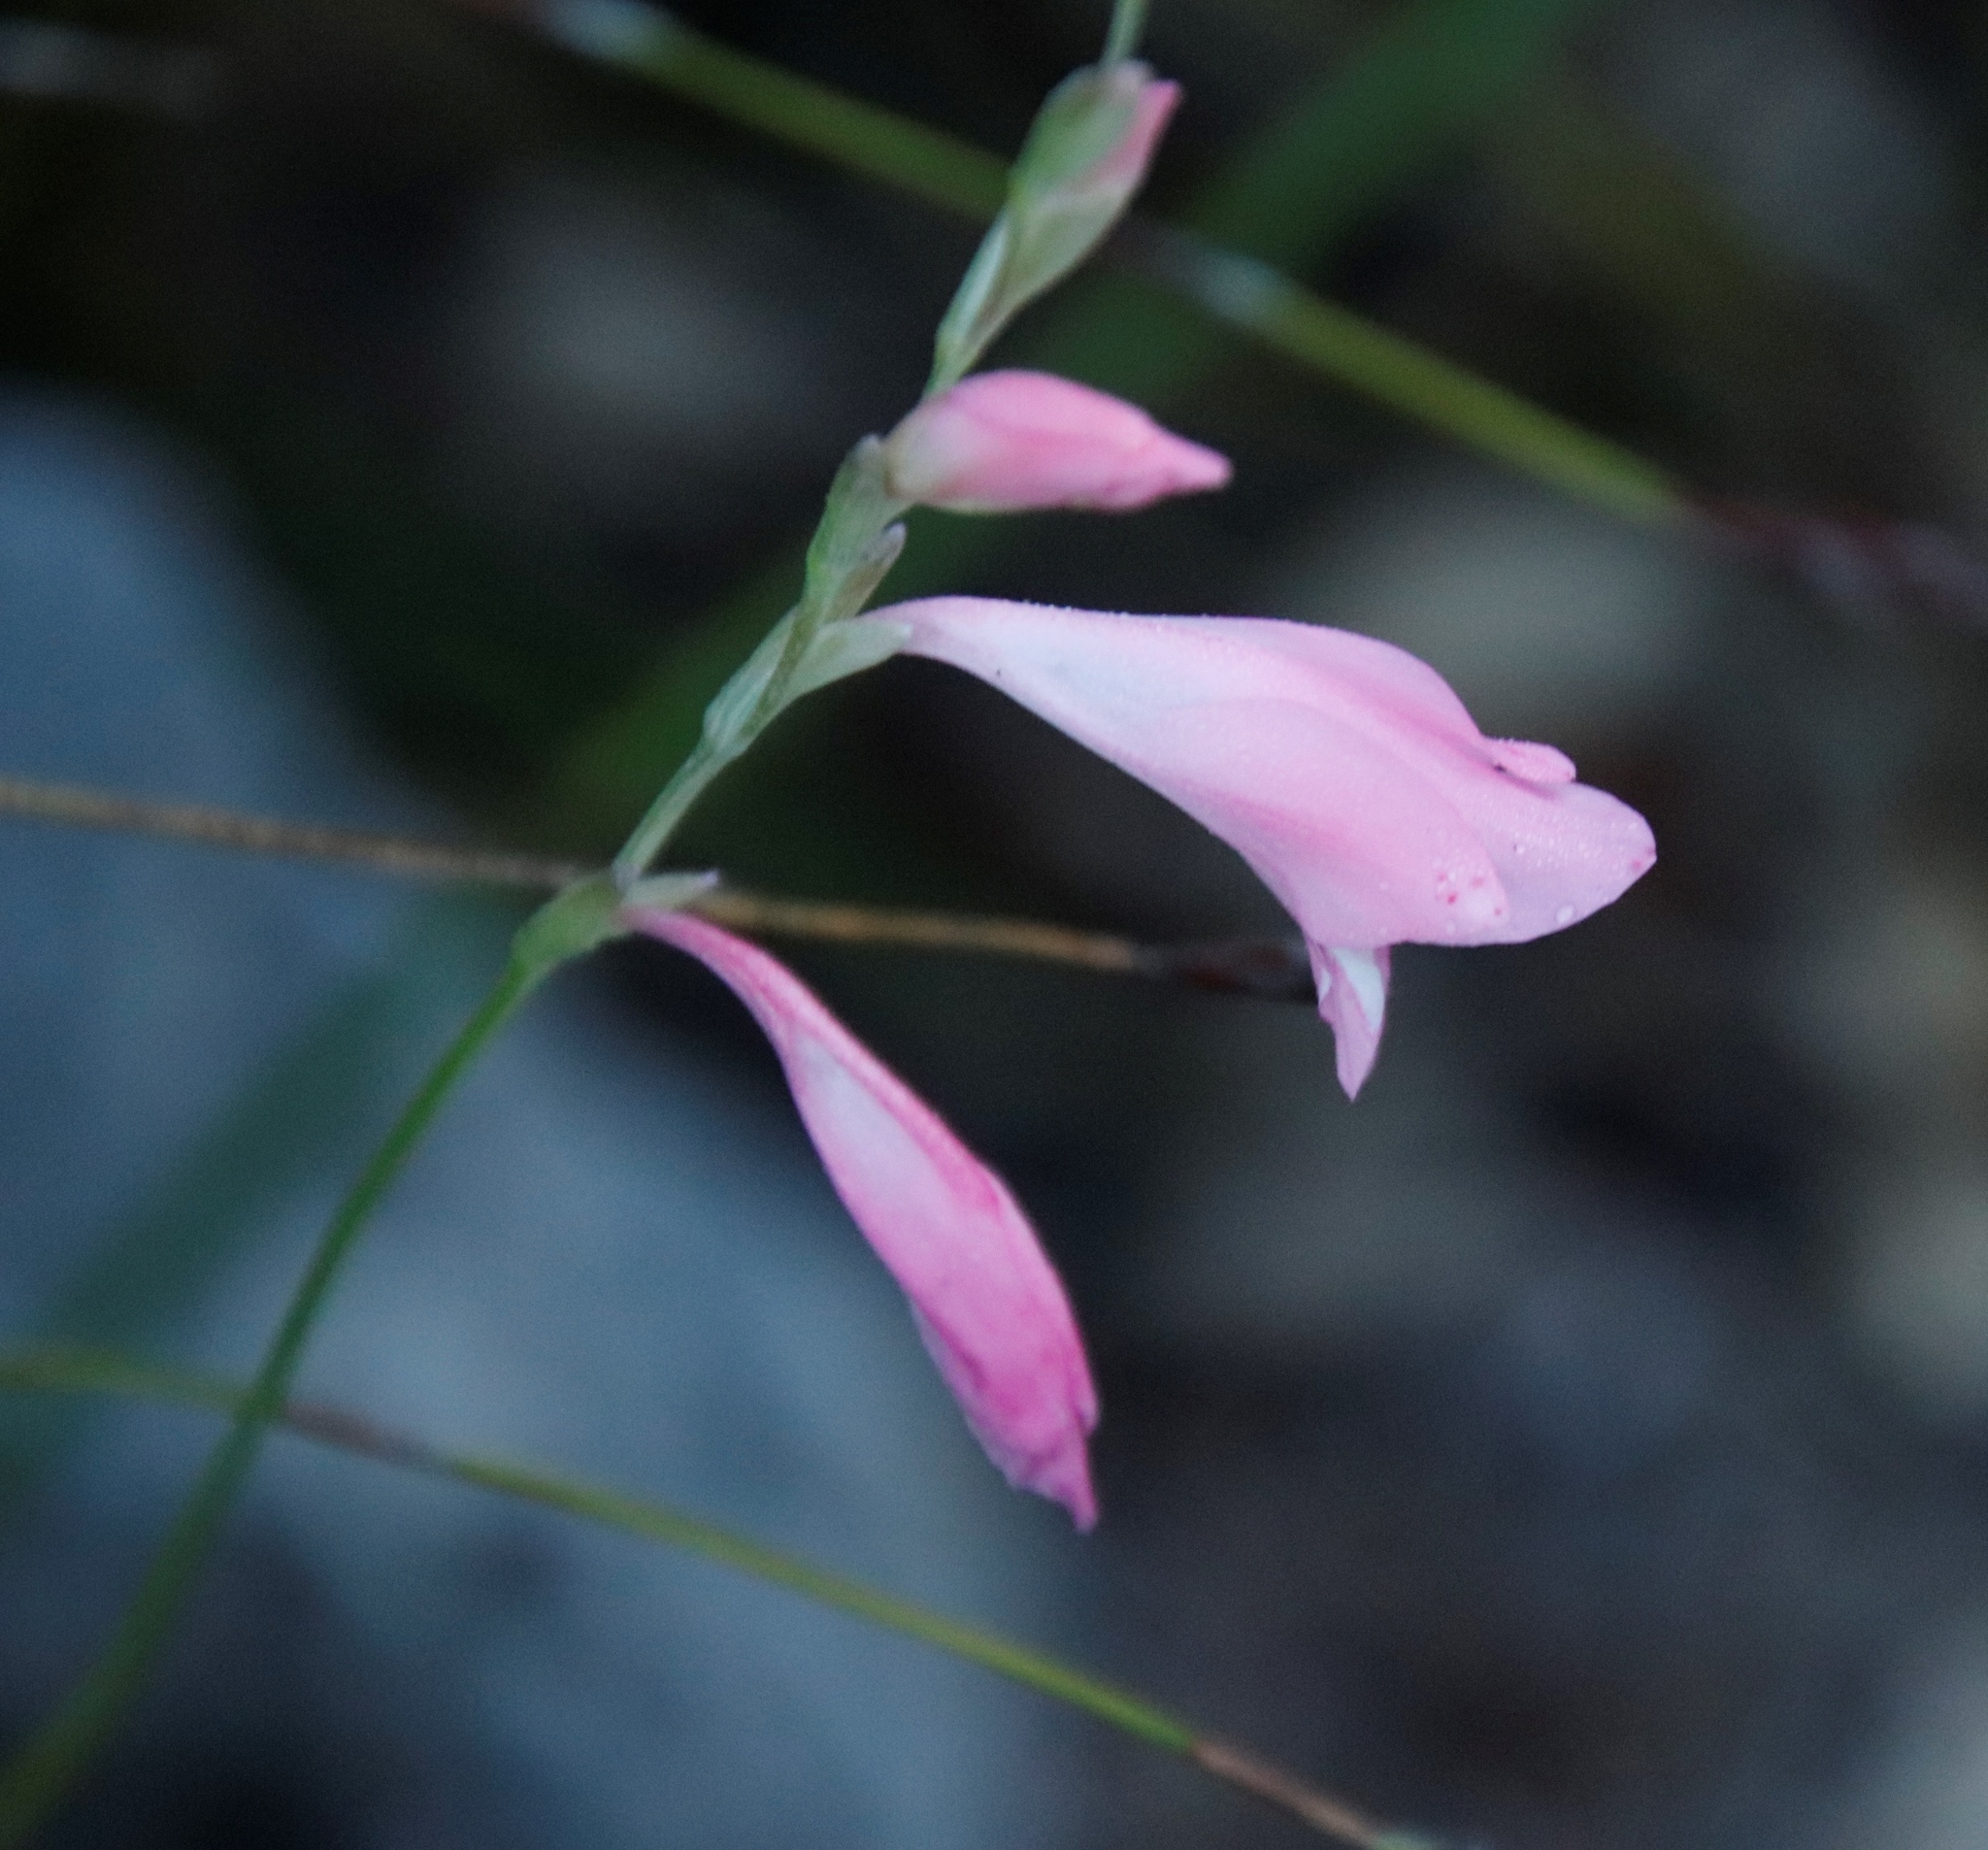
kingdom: Plantae
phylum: Tracheophyta
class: Liliopsida
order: Asparagales
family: Iridaceae
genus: Gladiolus
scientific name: Gladiolus brevifolius
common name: March pypie
